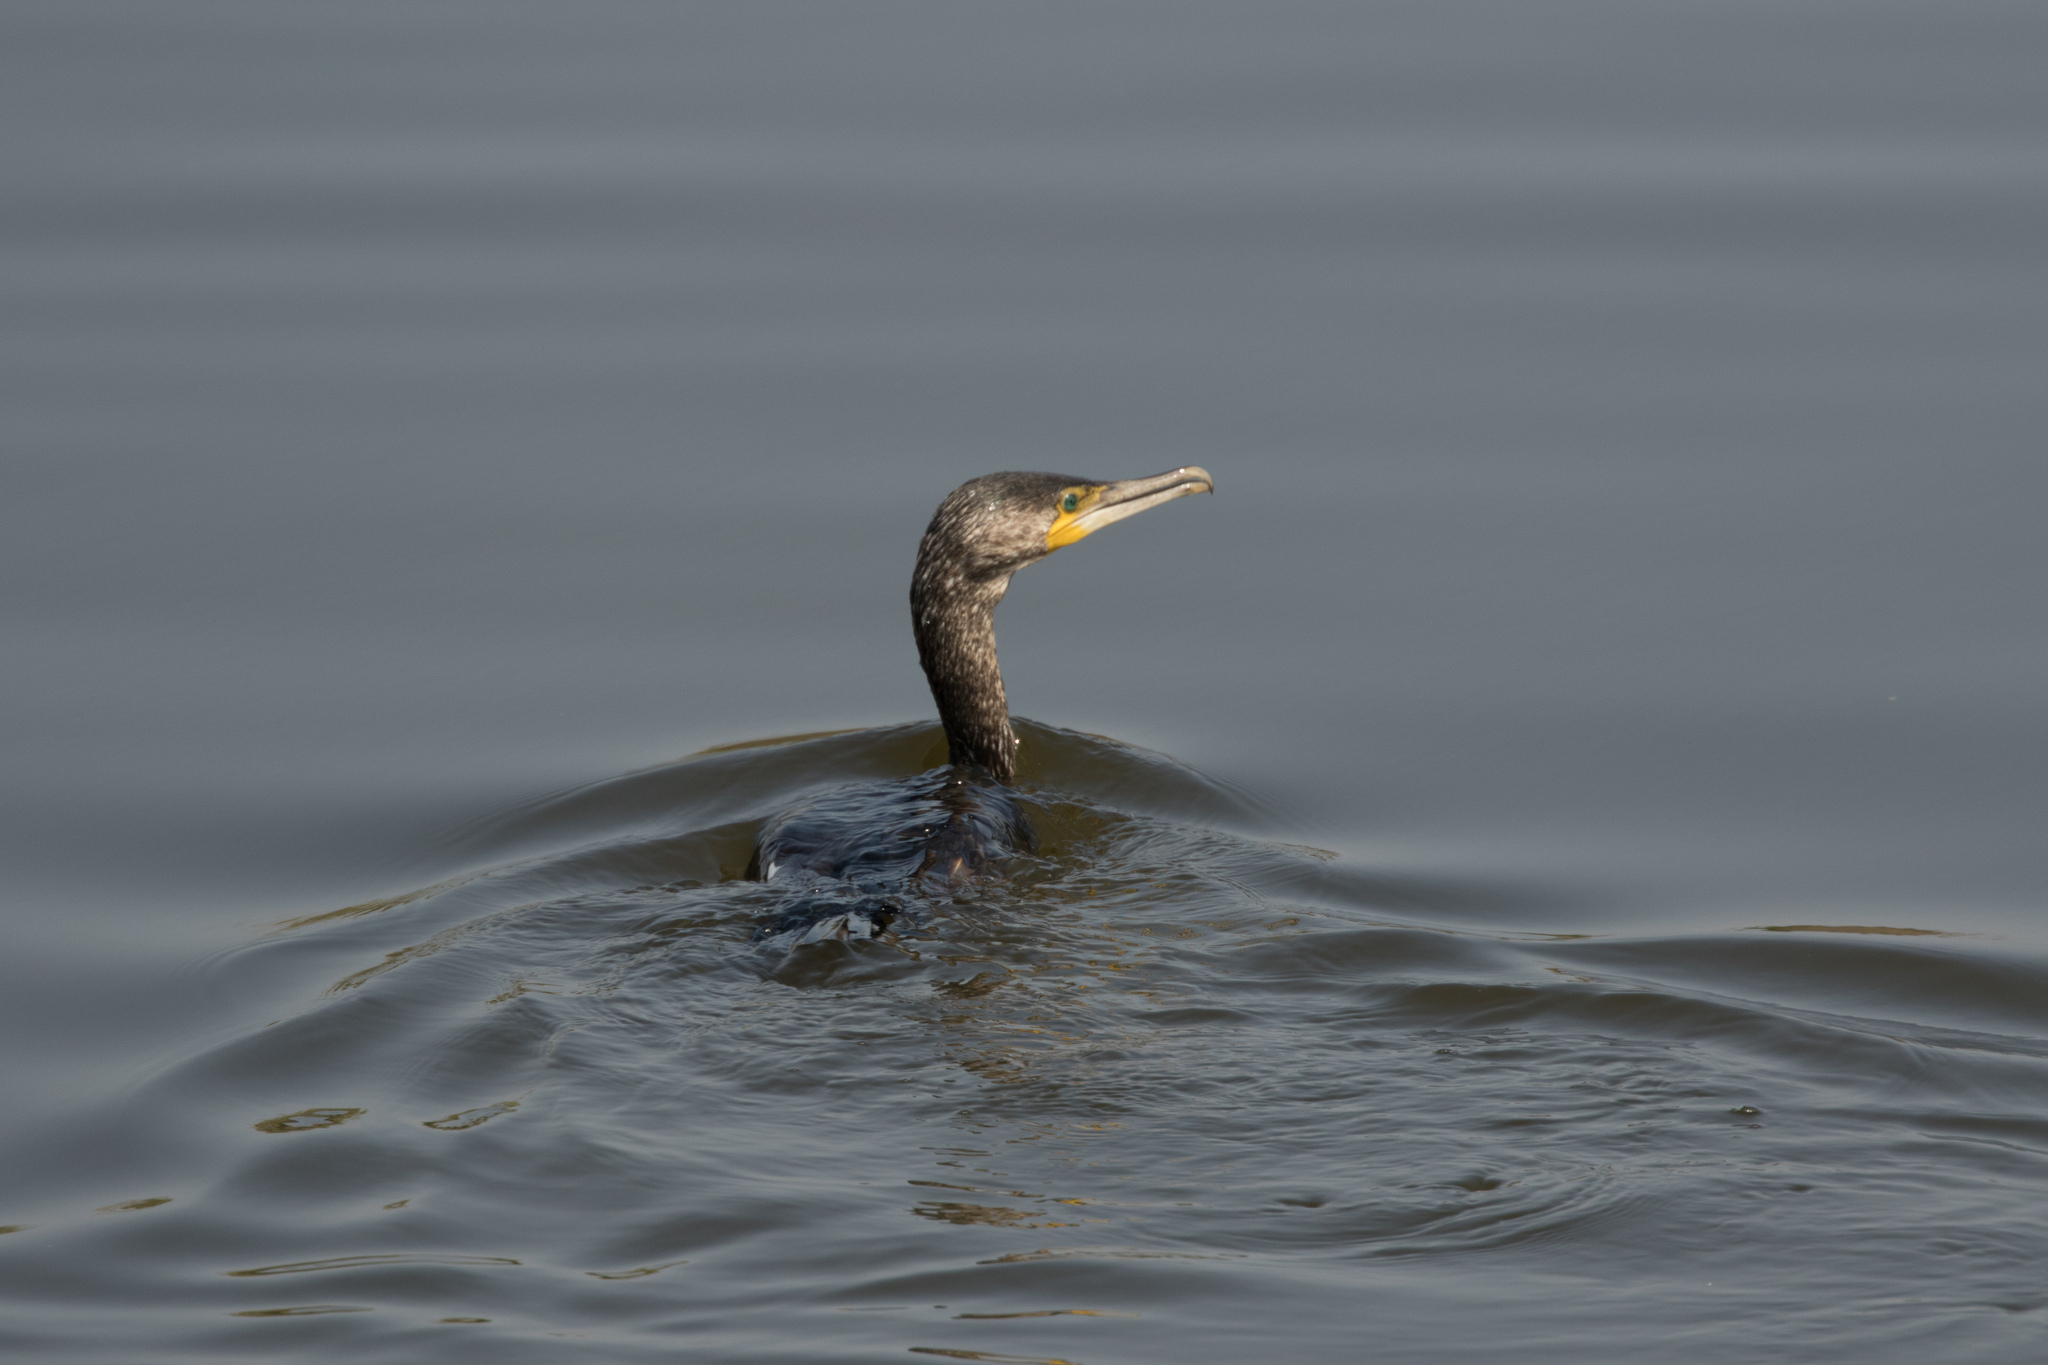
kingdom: Animalia
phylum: Chordata
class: Aves
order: Suliformes
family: Phalacrocoracidae
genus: Phalacrocorax
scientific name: Phalacrocorax carbo
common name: Great cormorant
